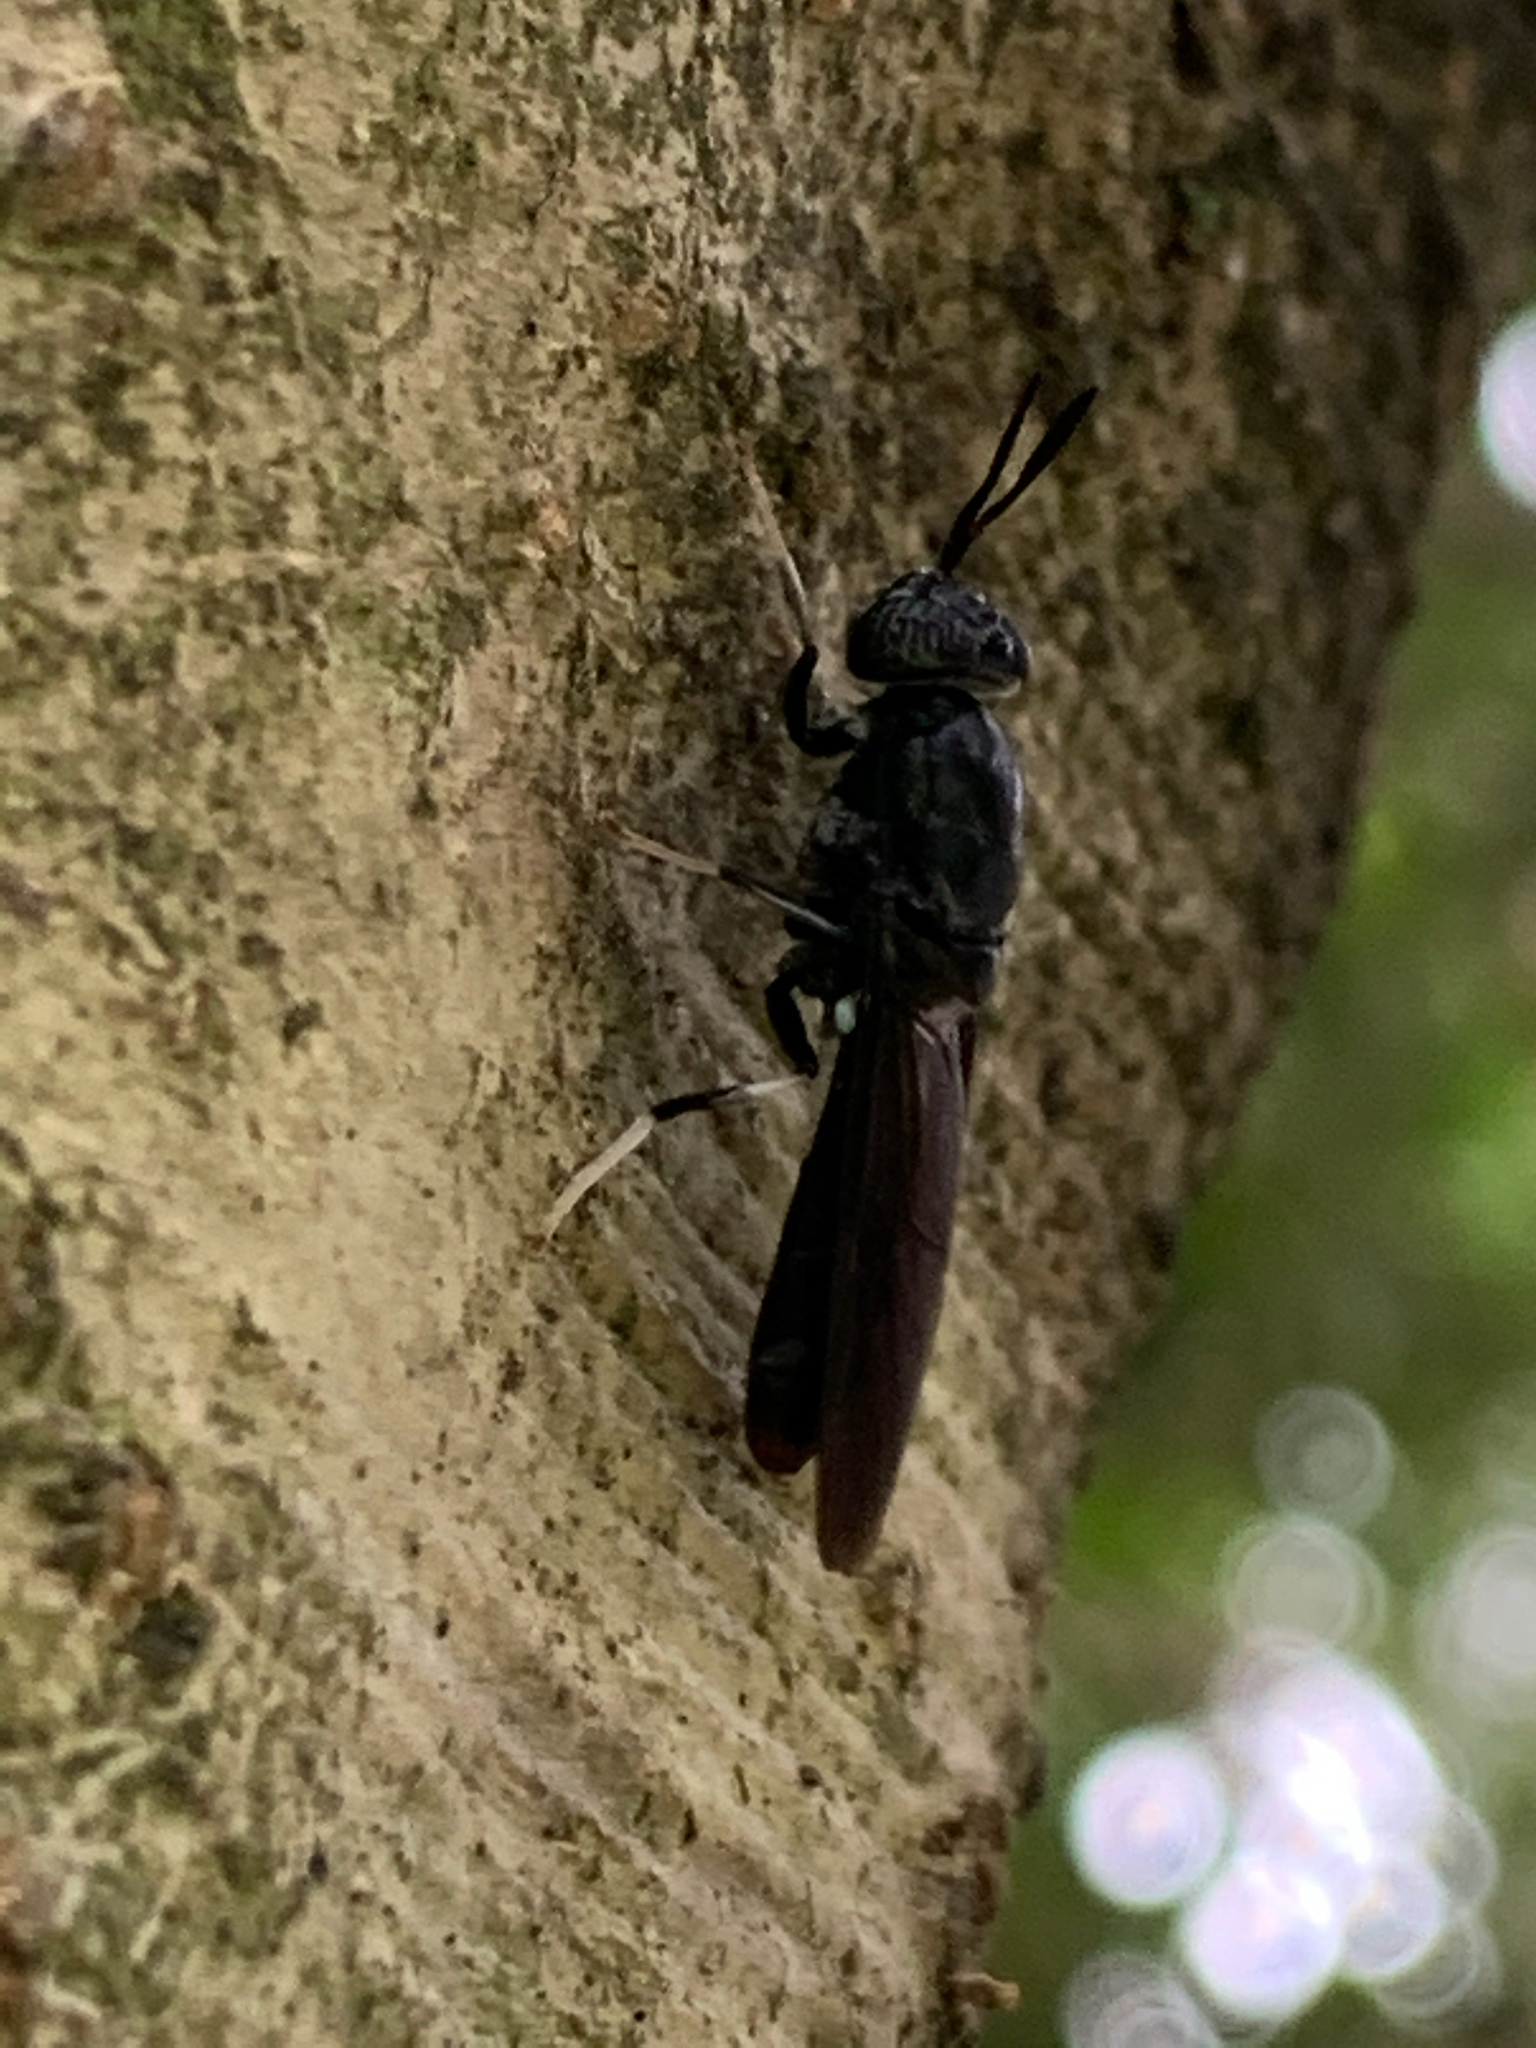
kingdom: Animalia
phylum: Arthropoda
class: Insecta
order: Diptera
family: Stratiomyidae
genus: Hermetia
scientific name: Hermetia illucens
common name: Black soldier fly
